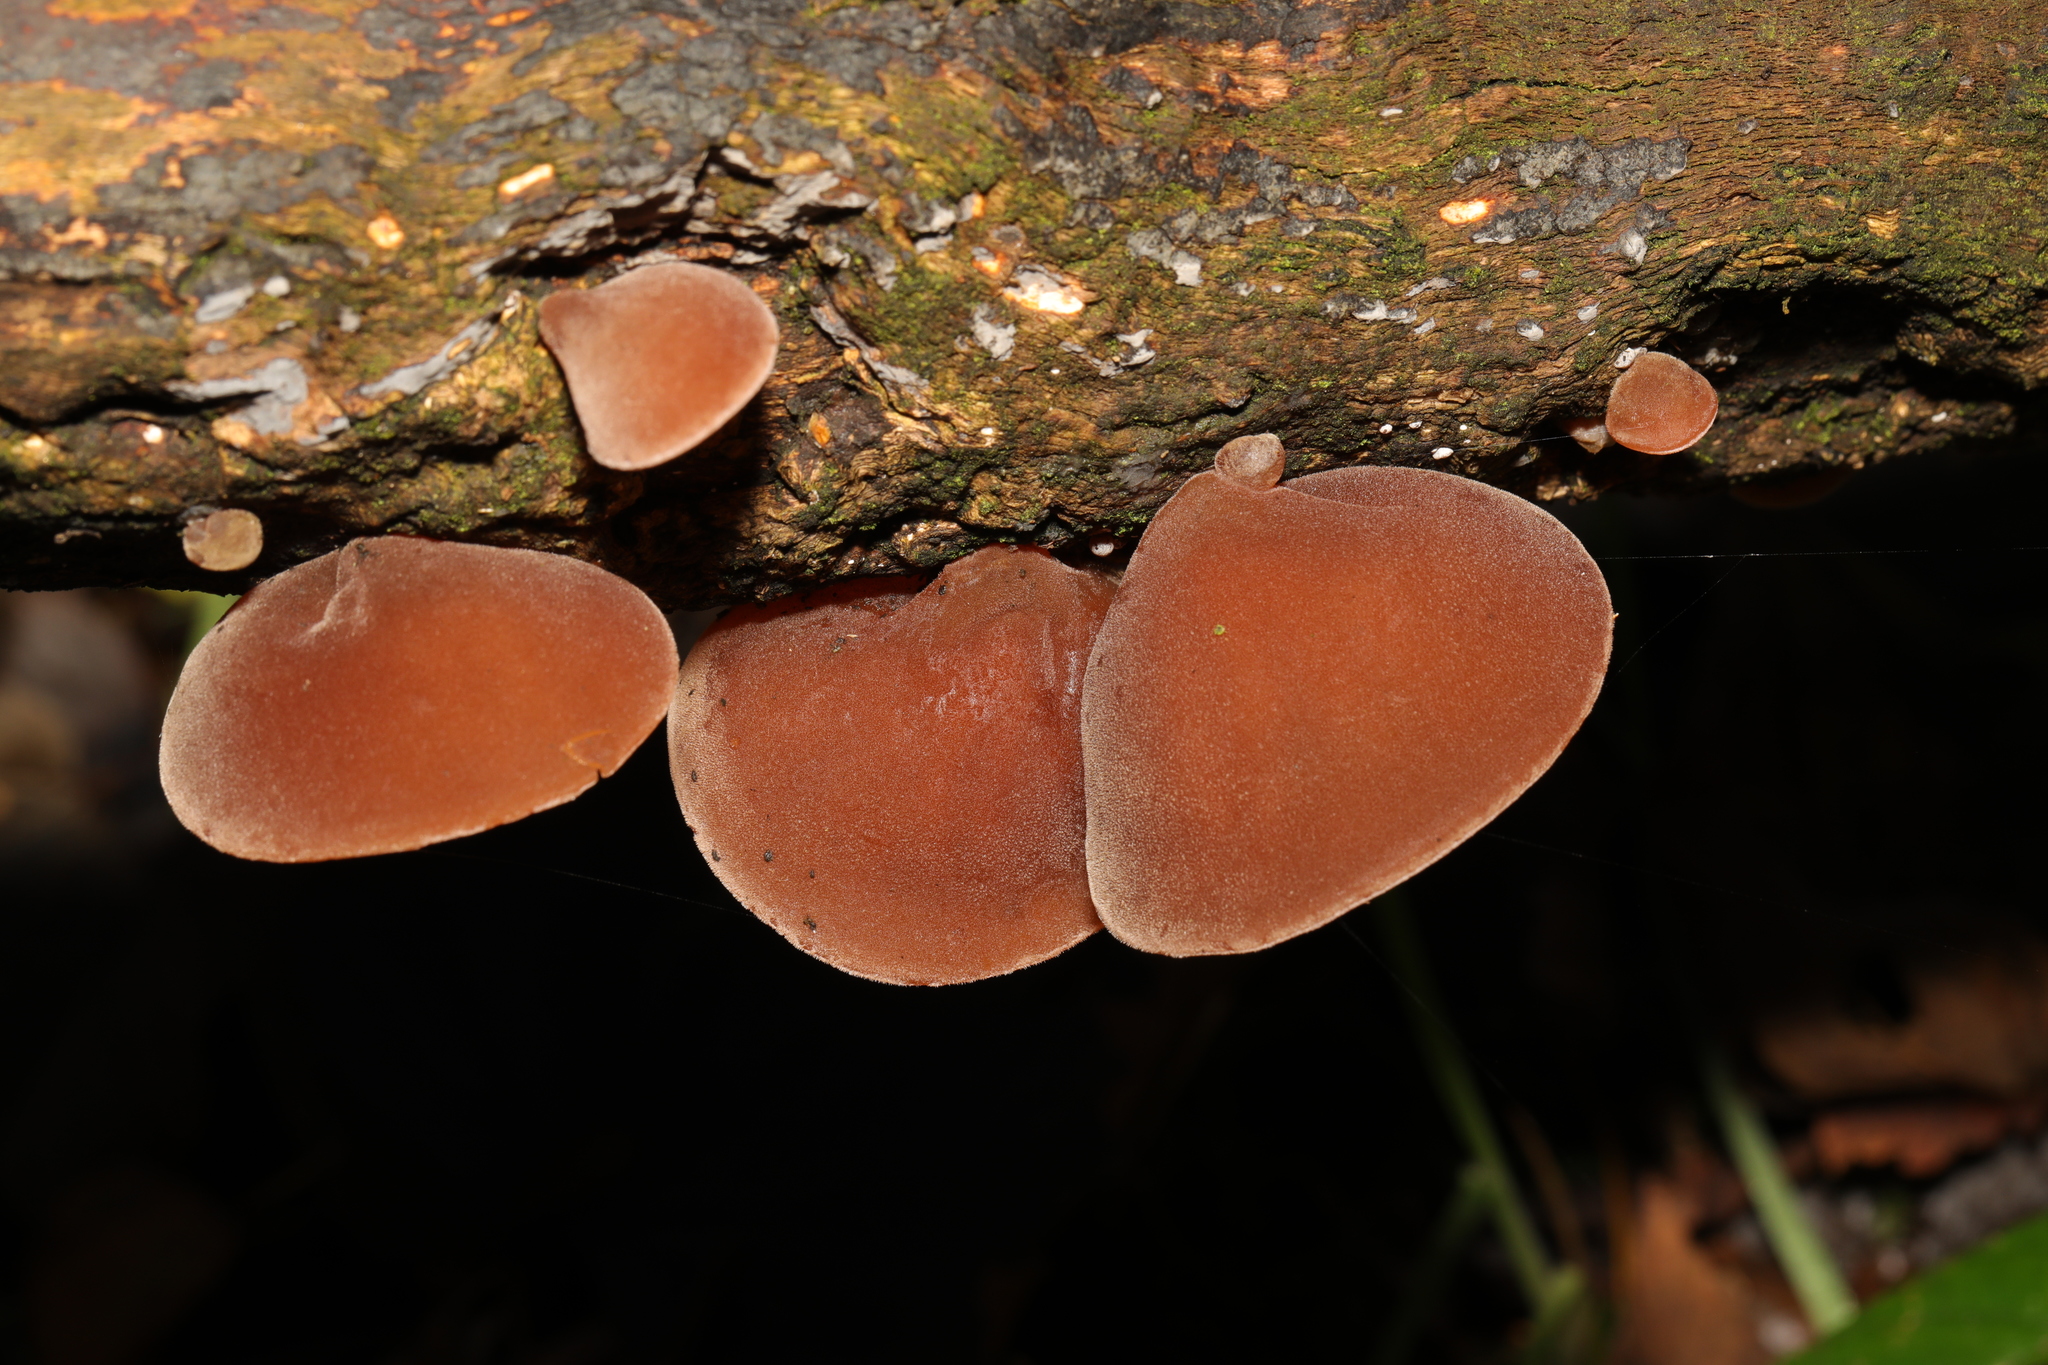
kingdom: Fungi
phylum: Basidiomycota
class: Agaricomycetes
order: Auriculariales
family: Auriculariaceae
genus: Auricularia
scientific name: Auricularia auricula-judae
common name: Jelly ear
